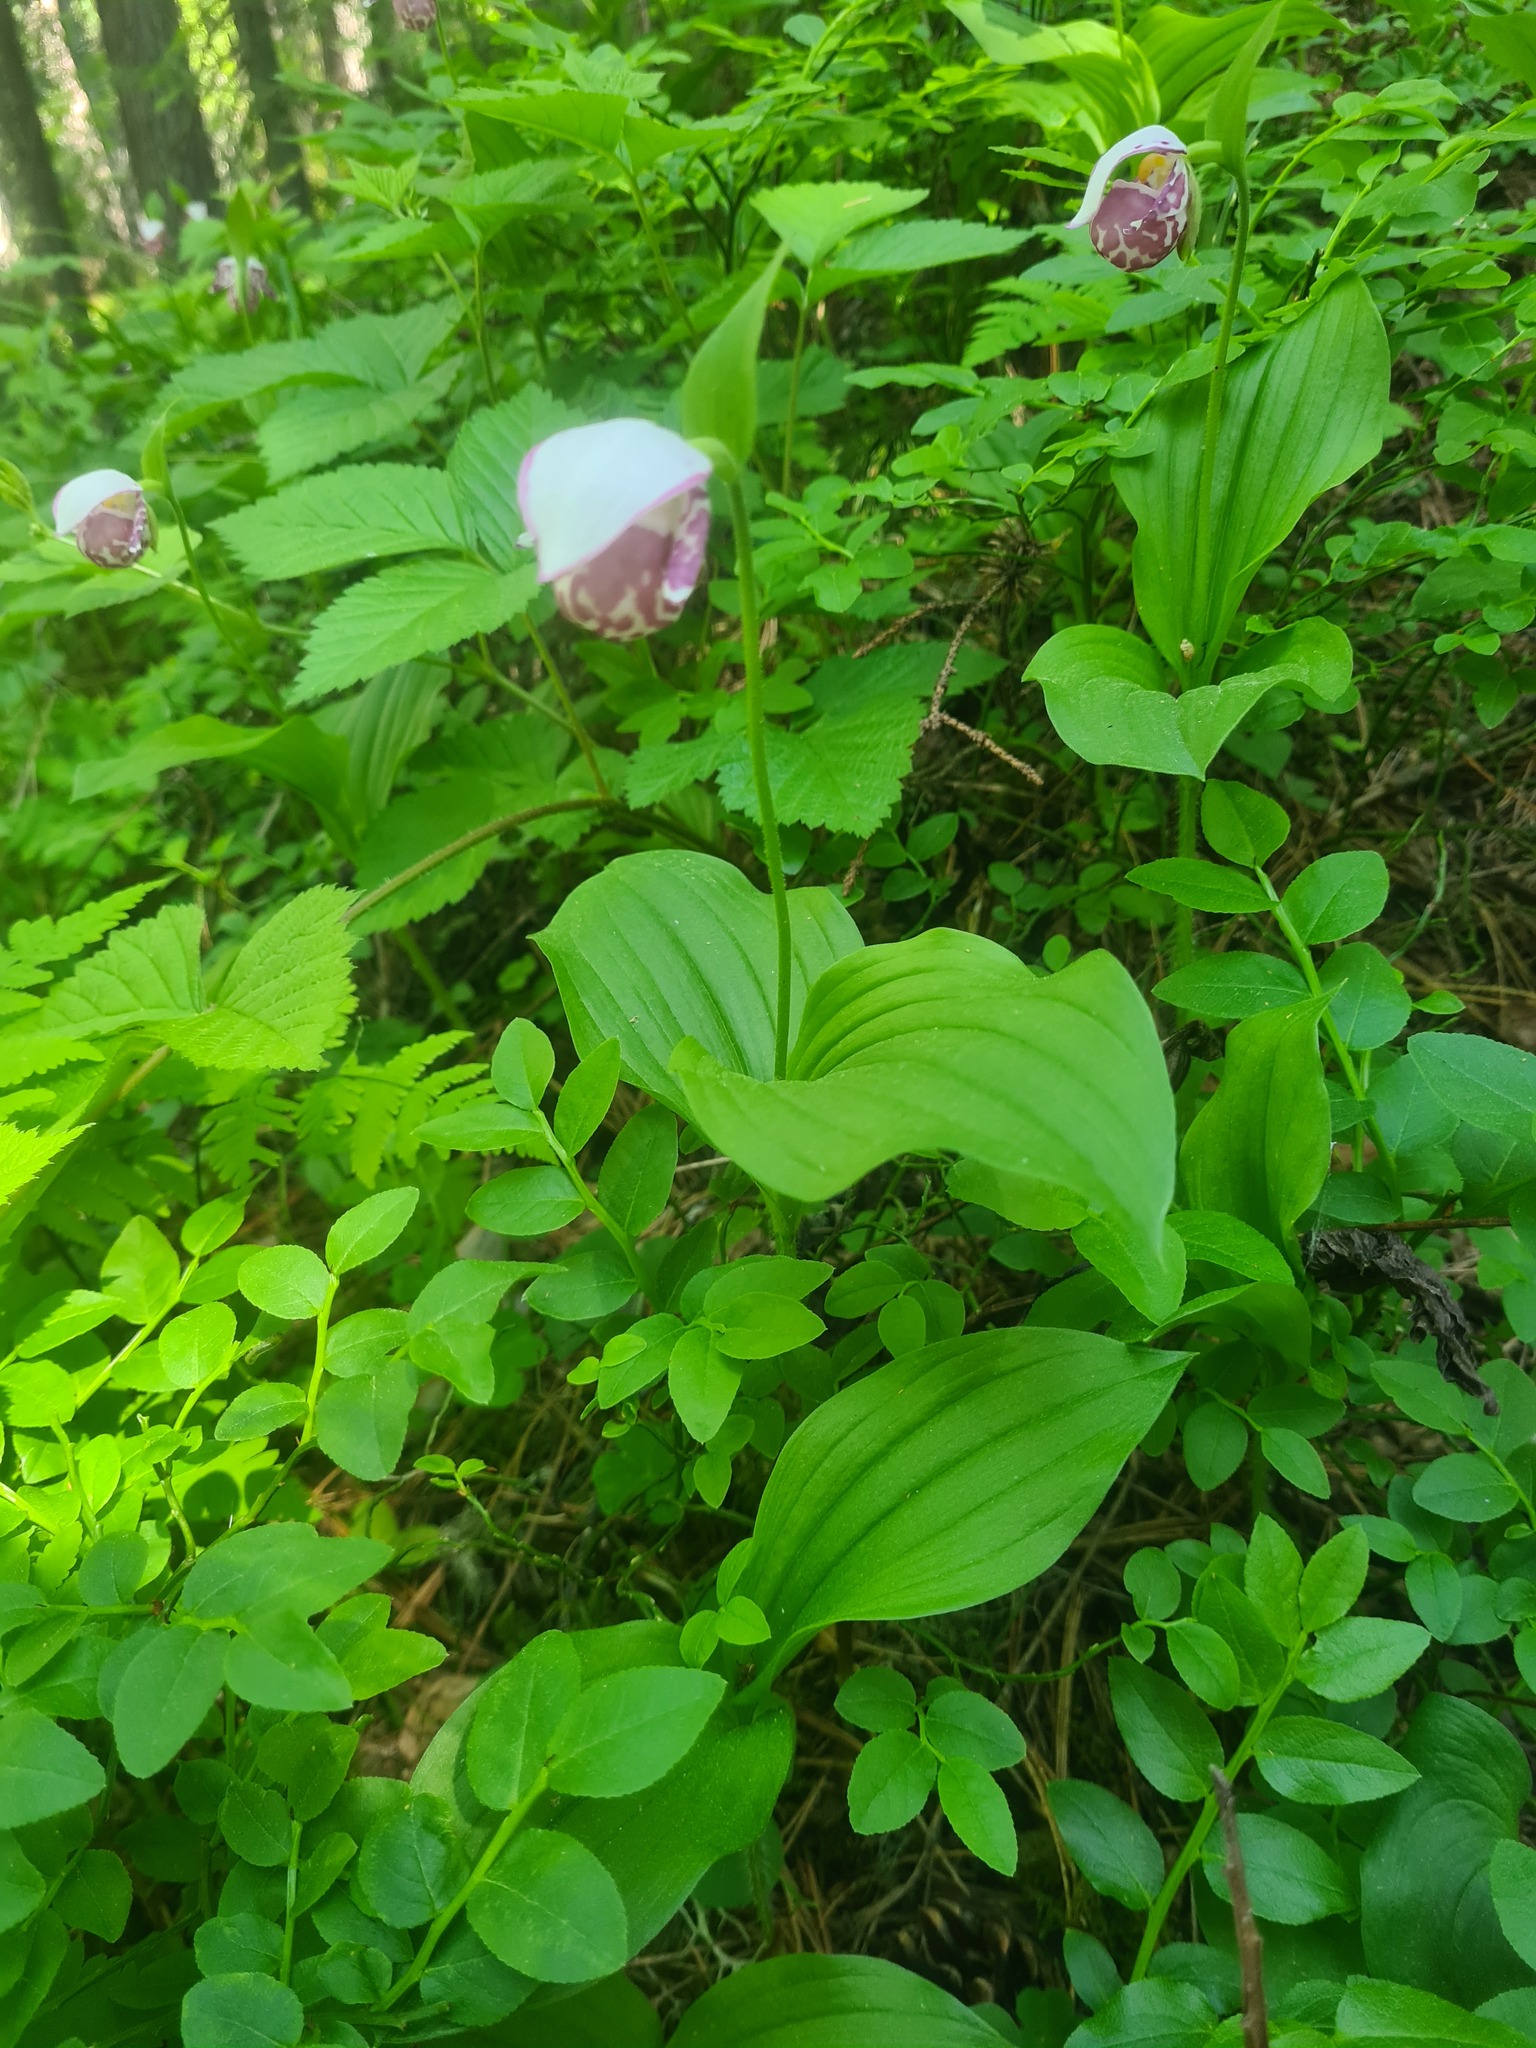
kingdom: Plantae
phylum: Tracheophyta
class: Liliopsida
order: Asparagales
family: Orchidaceae
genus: Cypripedium
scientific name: Cypripedium guttatum
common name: Pink lady slipper
